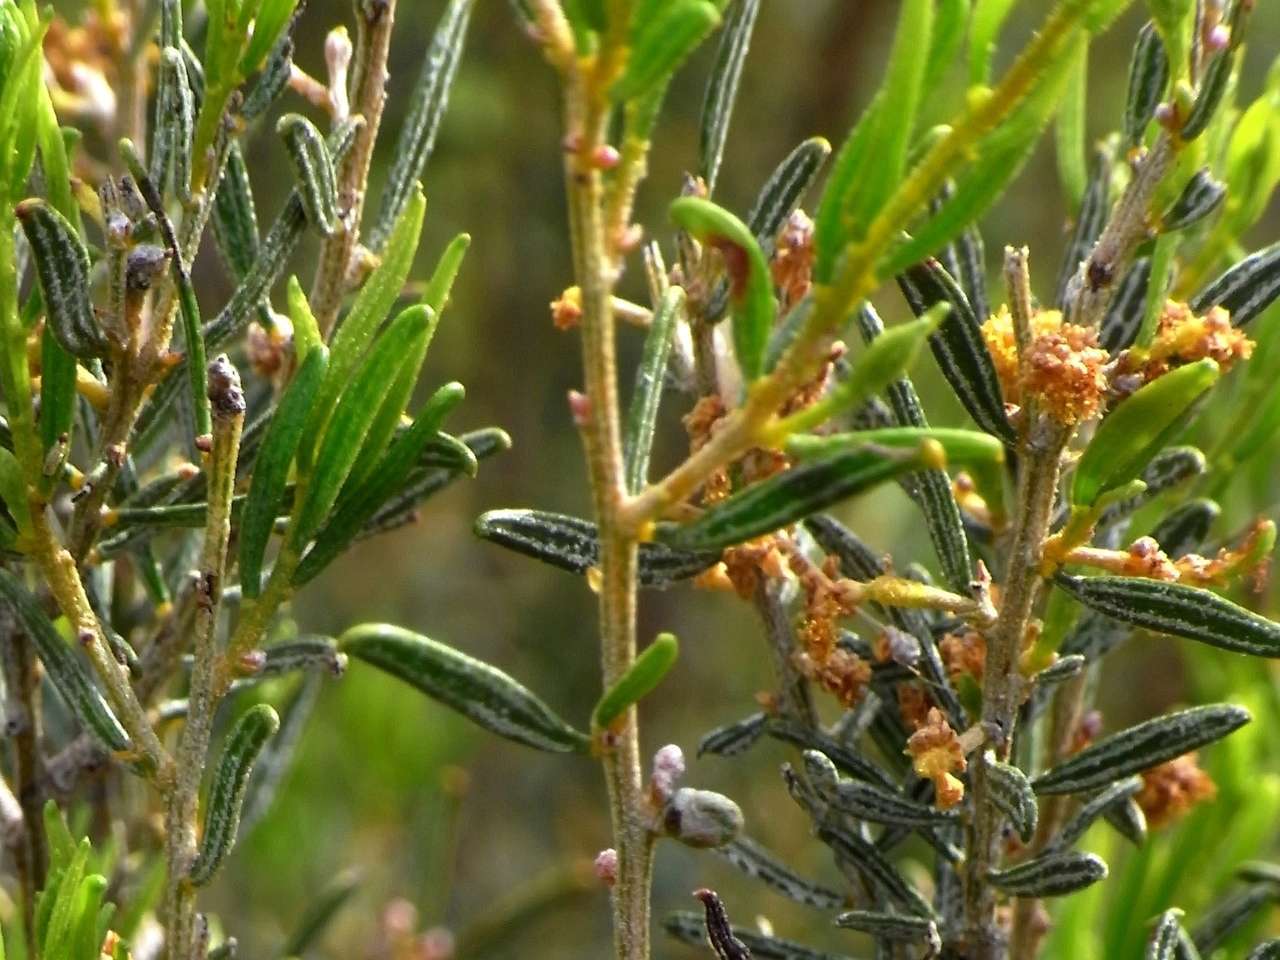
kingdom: Plantae
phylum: Tracheophyta
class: Magnoliopsida
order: Fabales
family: Fabaceae
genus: Acacia
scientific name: Acacia wilhelmiana
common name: Dwarf nealie
